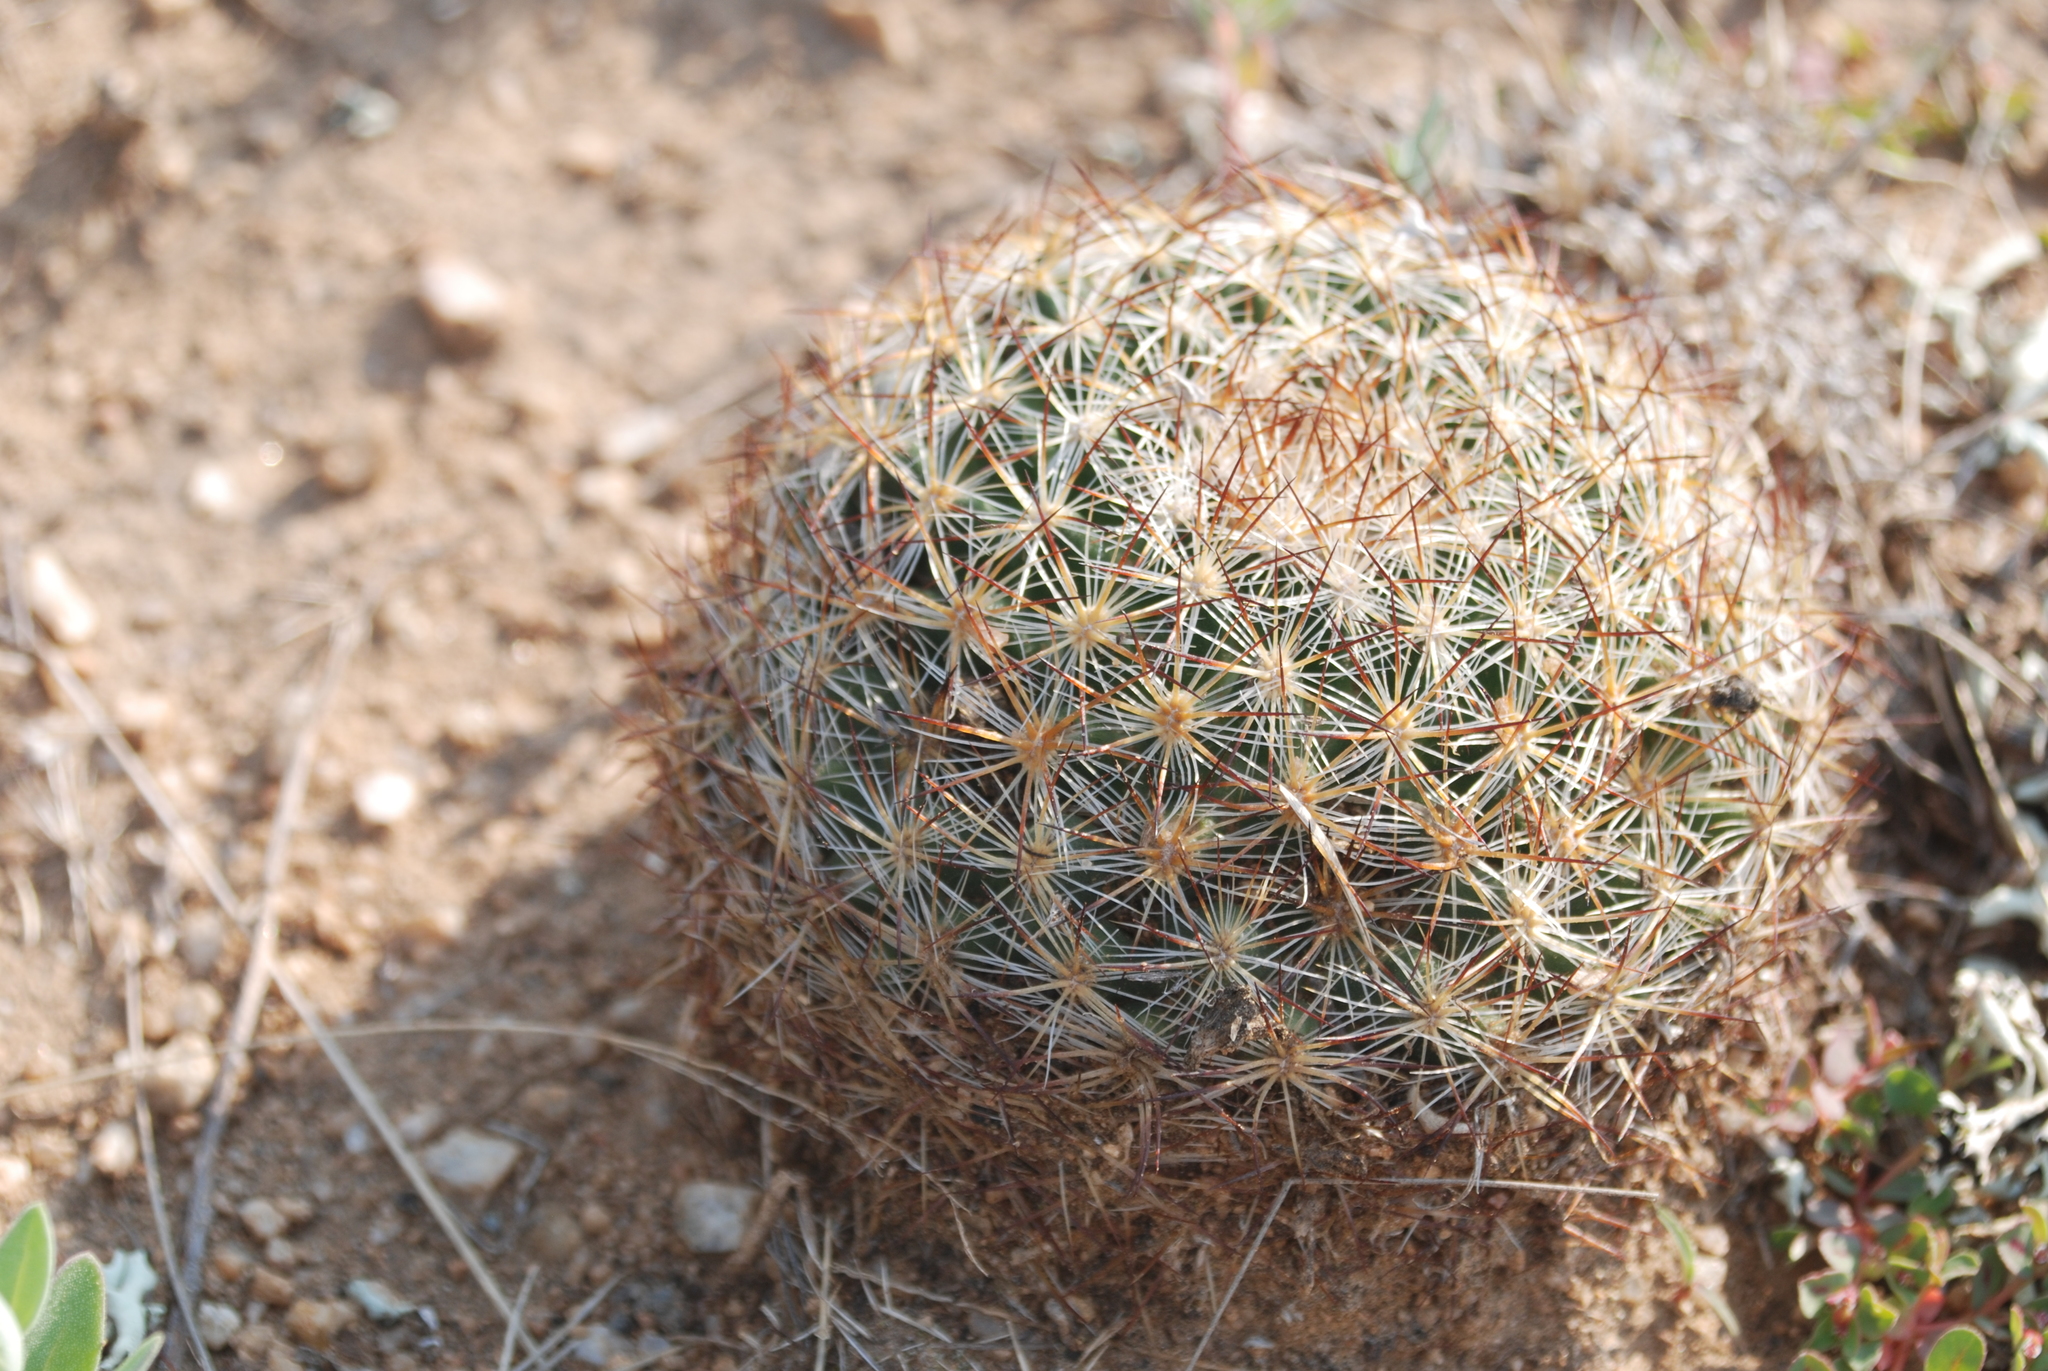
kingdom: Plantae
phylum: Tracheophyta
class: Magnoliopsida
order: Caryophyllales
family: Cactaceae
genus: Pediocactus
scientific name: Pediocactus simpsonii
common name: Simpson's hedgehog cactus
